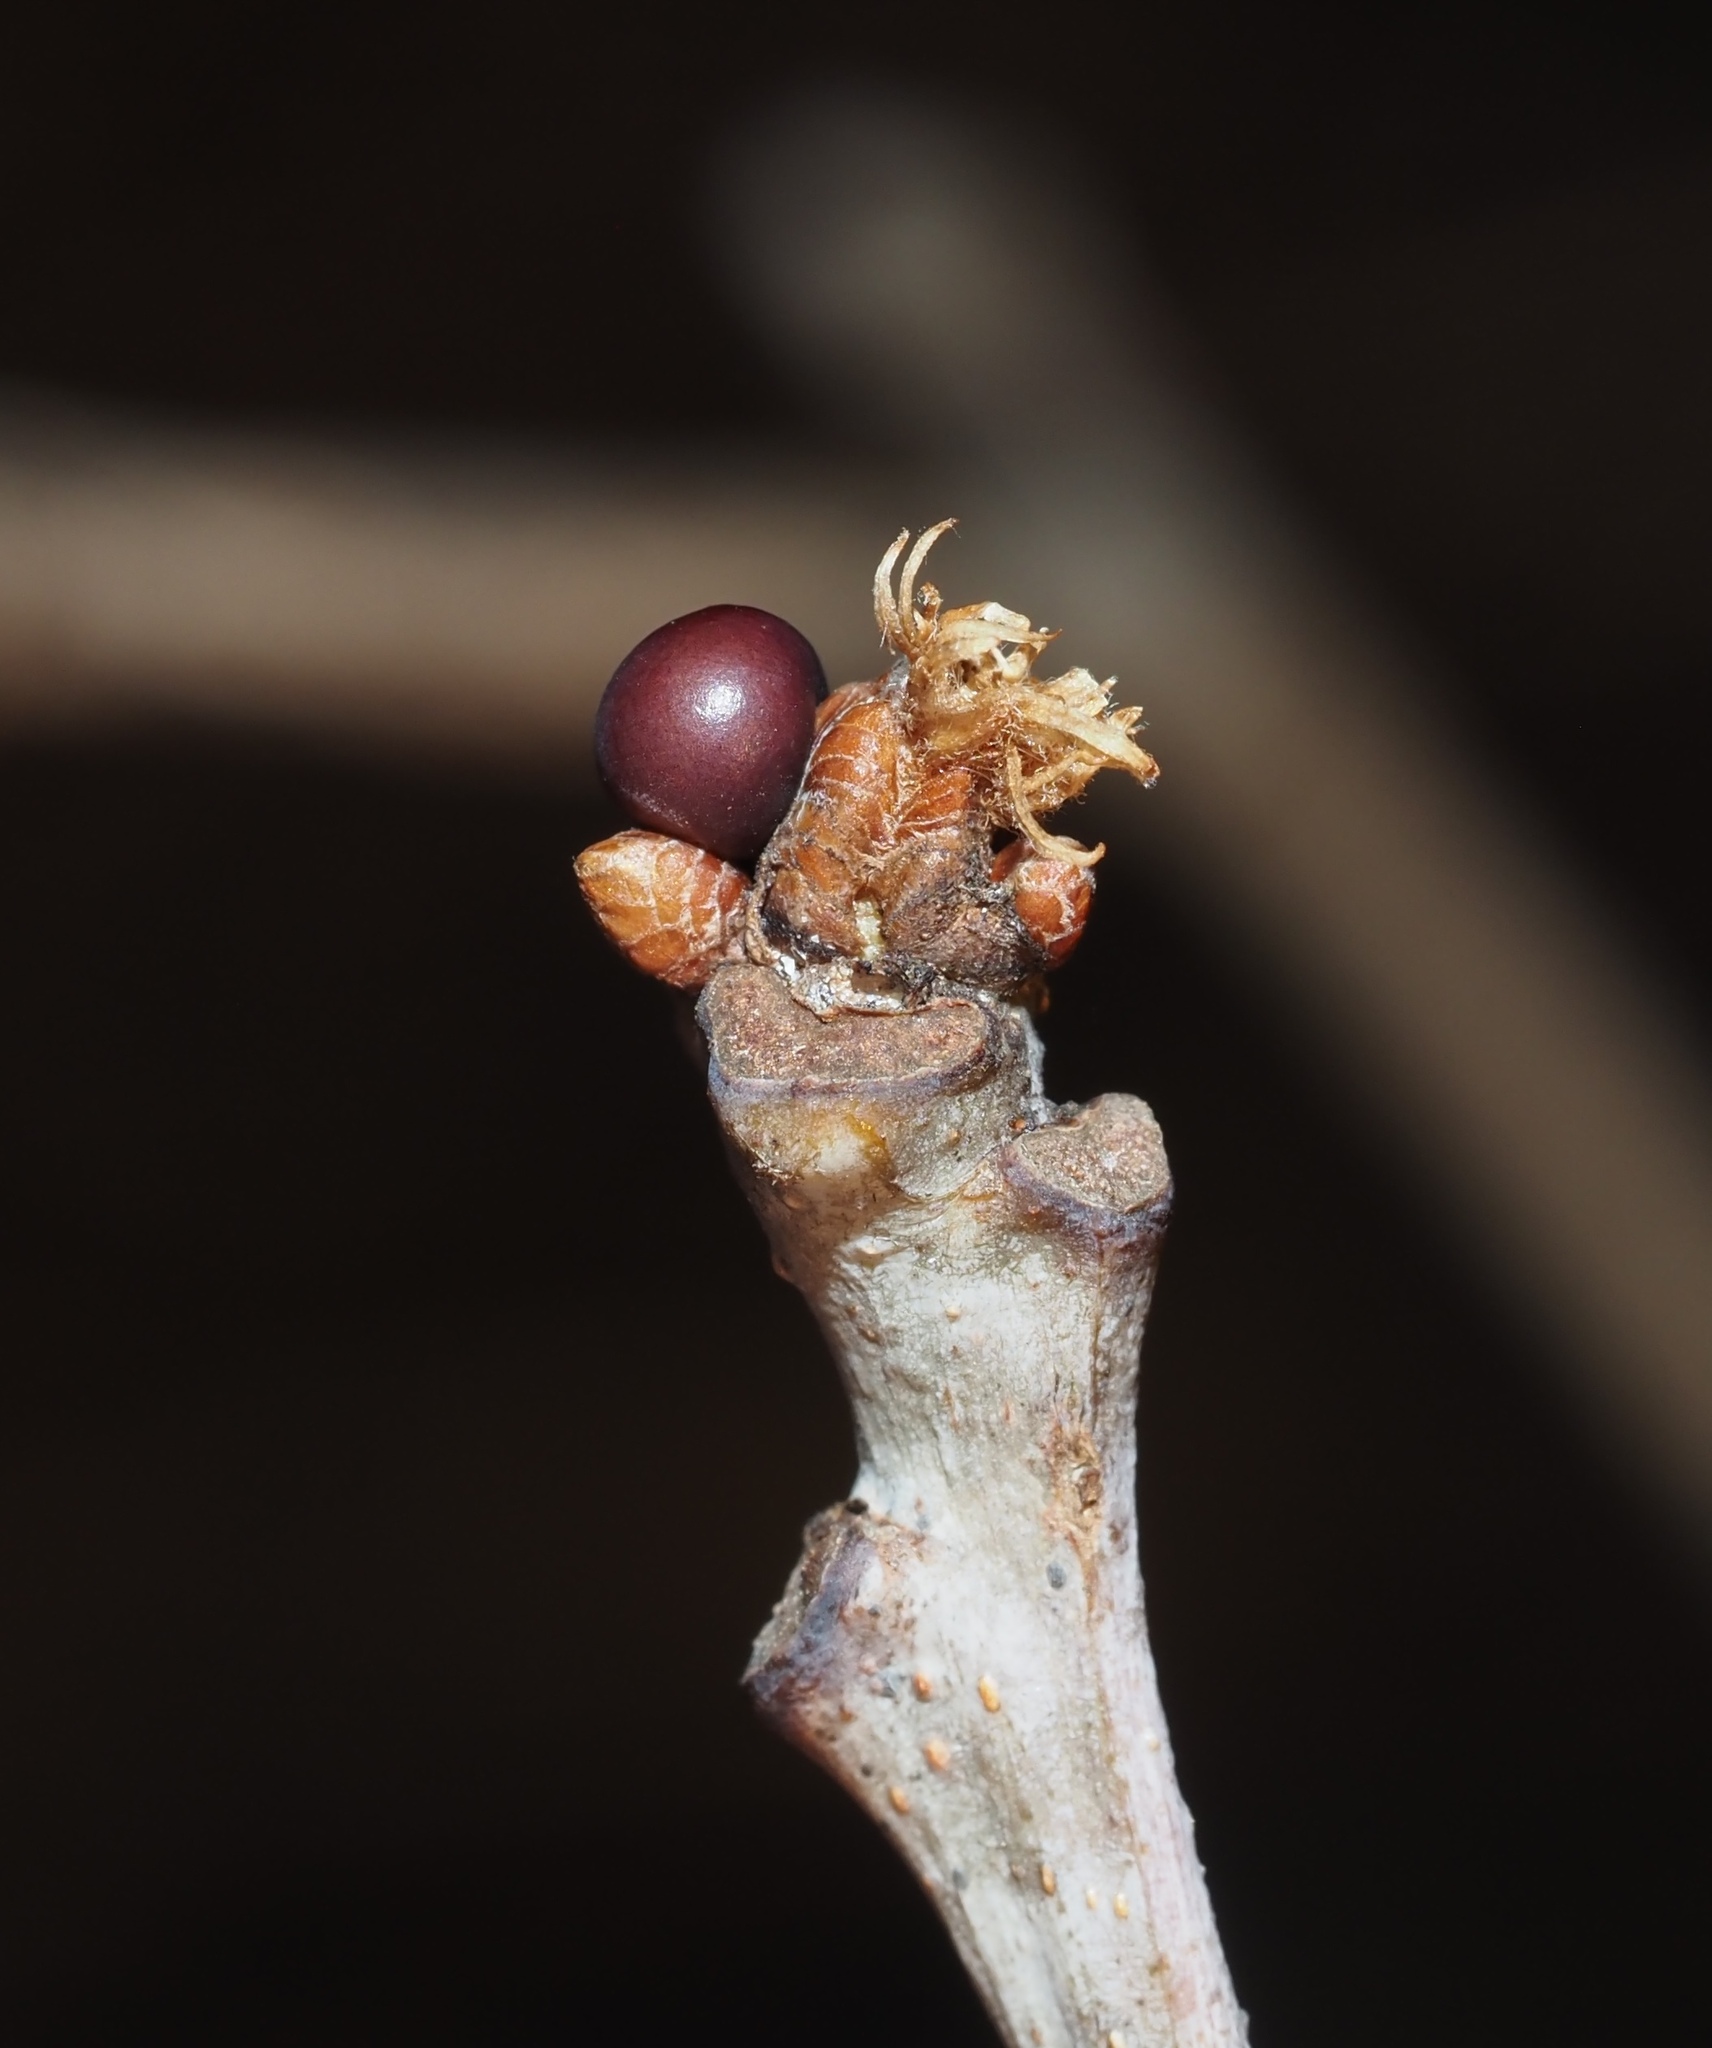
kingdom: Animalia
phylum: Arthropoda
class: Insecta
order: Hymenoptera
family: Cynipidae
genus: Neuroterus
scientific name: Neuroterus
